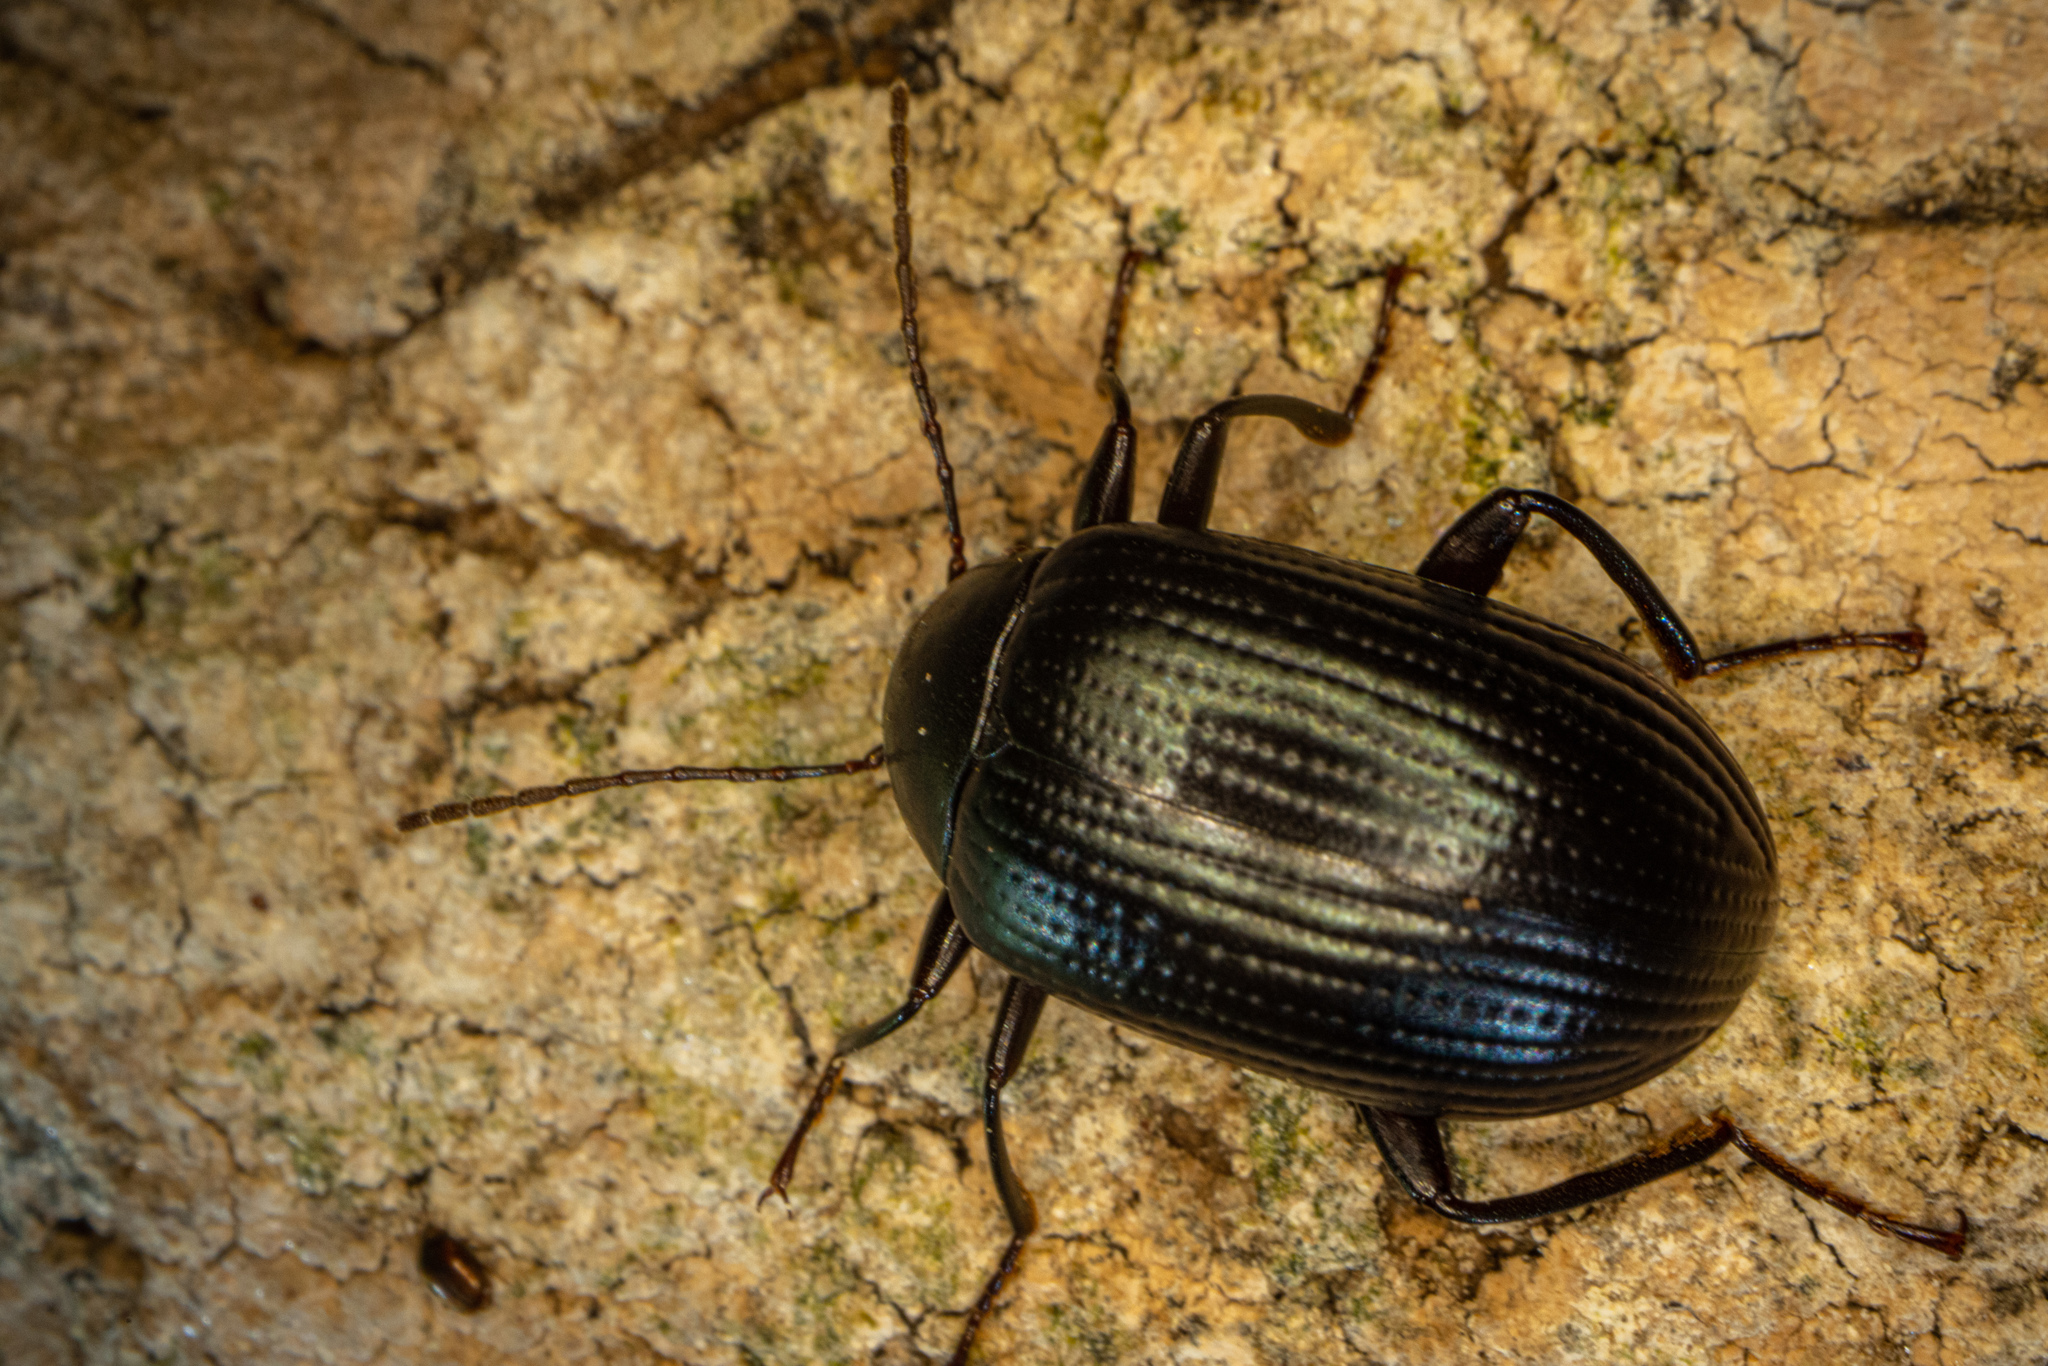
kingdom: Animalia
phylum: Arthropoda
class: Insecta
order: Coleoptera
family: Tenebrionidae
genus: Amarygmus
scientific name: Amarygmus
